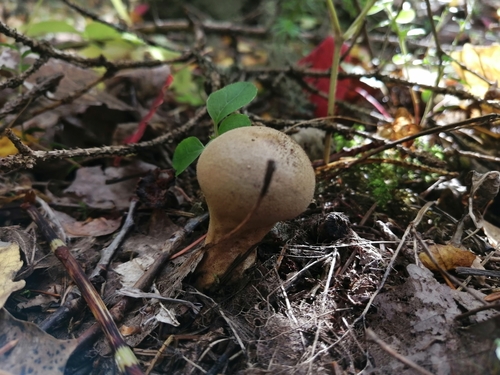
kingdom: Fungi
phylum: Basidiomycota
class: Agaricomycetes
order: Agaricales
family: Lycoperdaceae
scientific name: Lycoperdaceae
